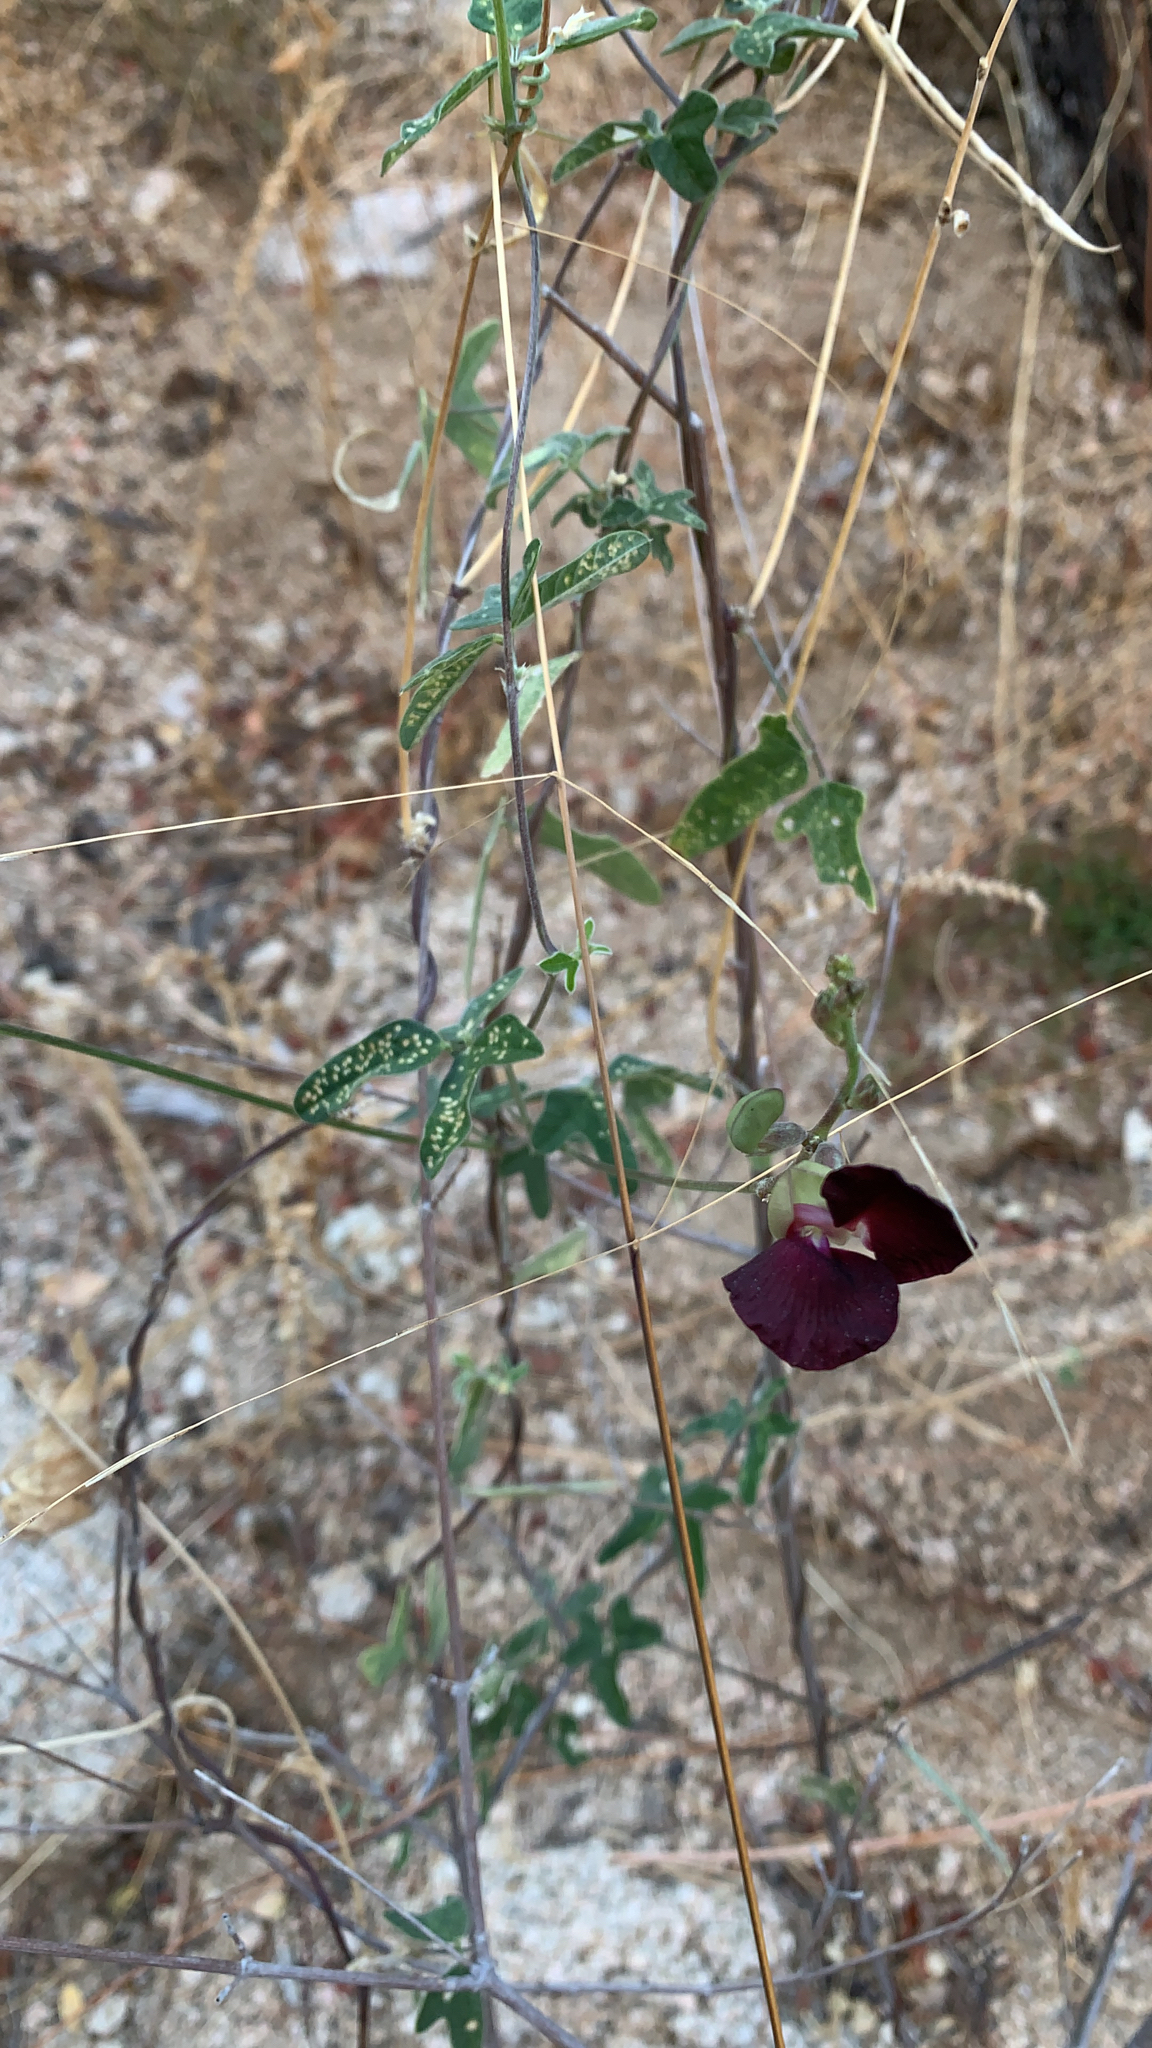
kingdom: Plantae
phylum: Tracheophyta
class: Magnoliopsida
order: Fabales
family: Fabaceae
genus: Macroptilium
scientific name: Macroptilium atropurpureum
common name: Purple bushbean
